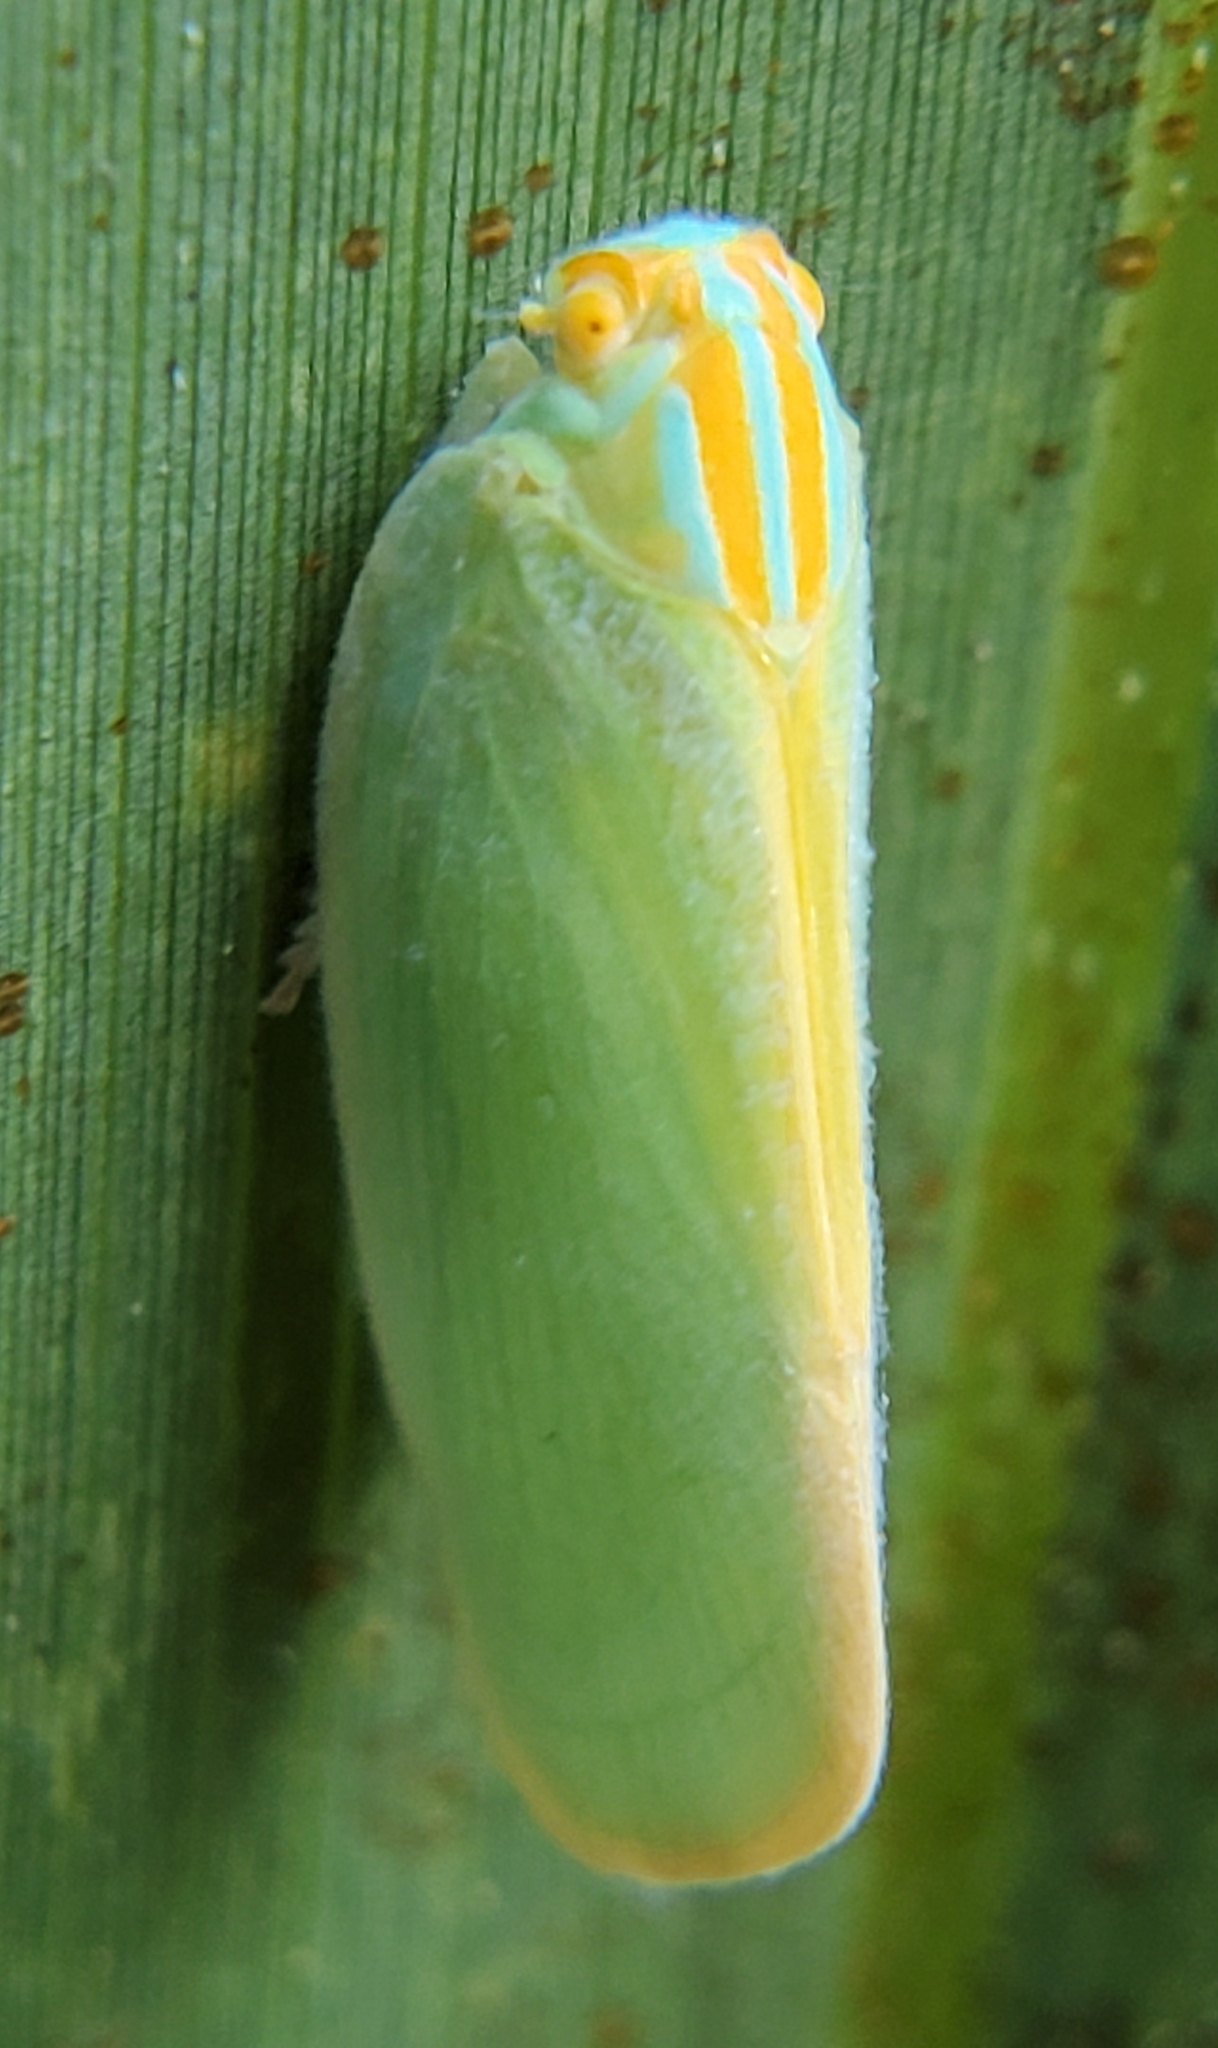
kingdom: Animalia
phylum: Arthropoda
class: Insecta
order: Hemiptera
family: Flatidae
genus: Ormenaria
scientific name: Ormenaria rufifascia
